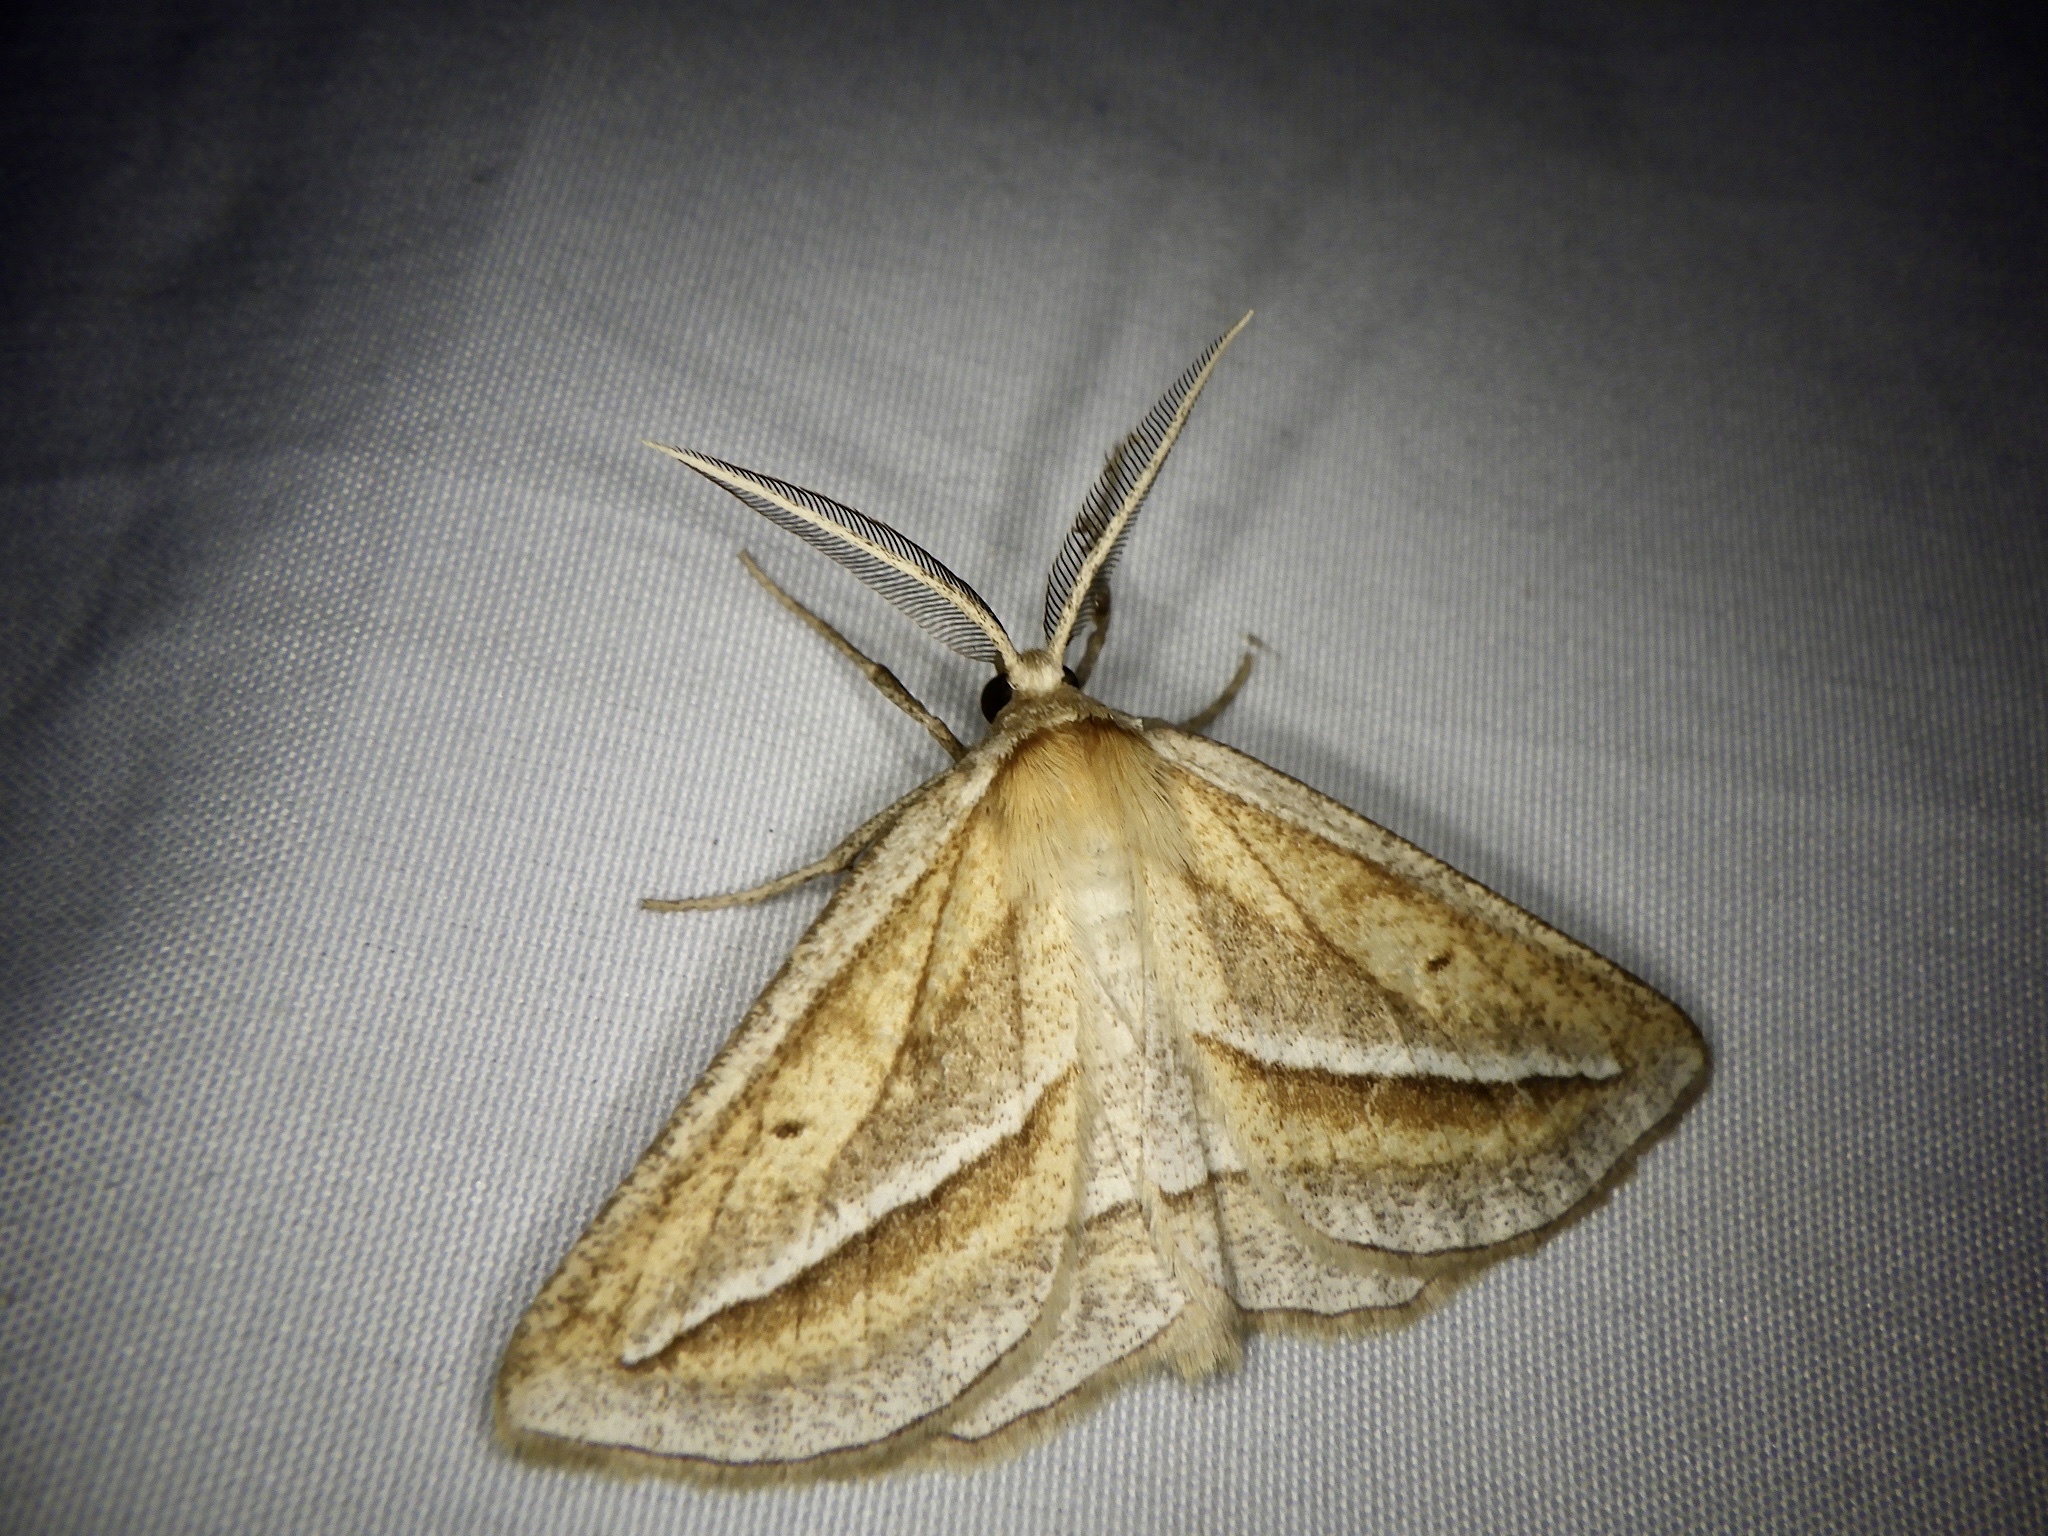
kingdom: Animalia
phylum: Arthropoda
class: Insecta
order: Lepidoptera
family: Geometridae
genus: Chariaspilates
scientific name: Chariaspilates formosaria
